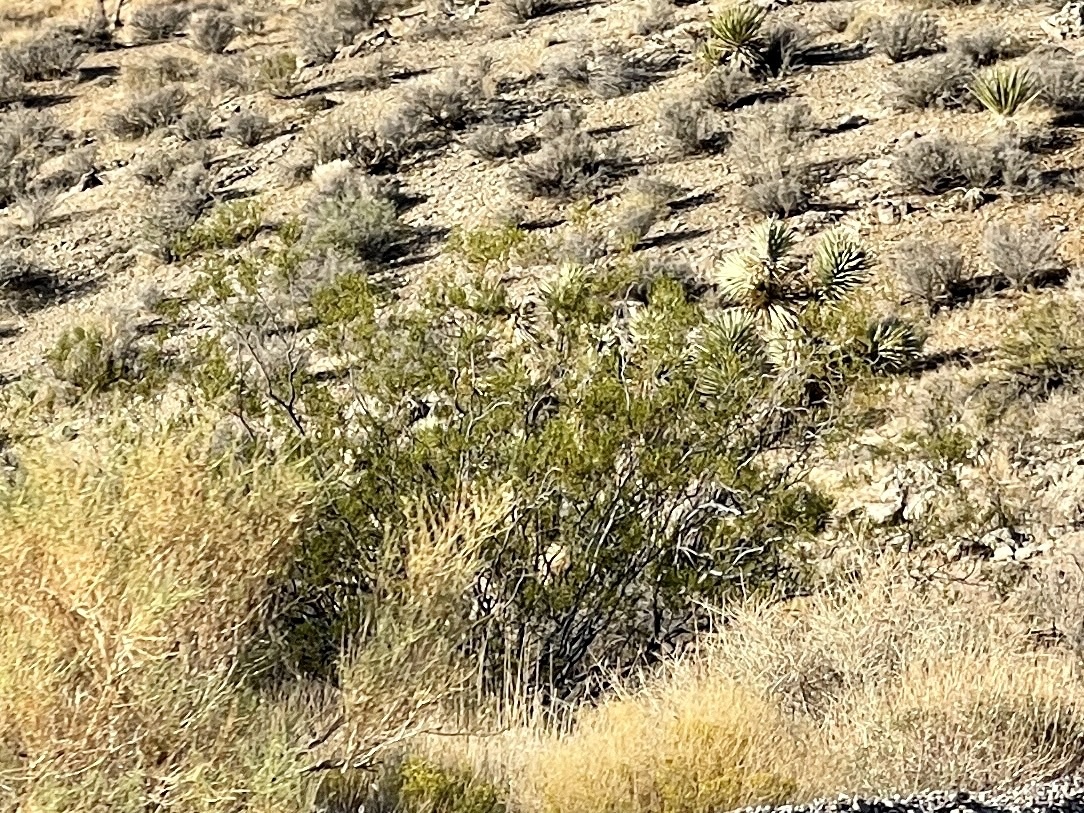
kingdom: Plantae
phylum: Tracheophyta
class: Magnoliopsida
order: Zygophyllales
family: Zygophyllaceae
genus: Larrea
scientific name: Larrea tridentata
